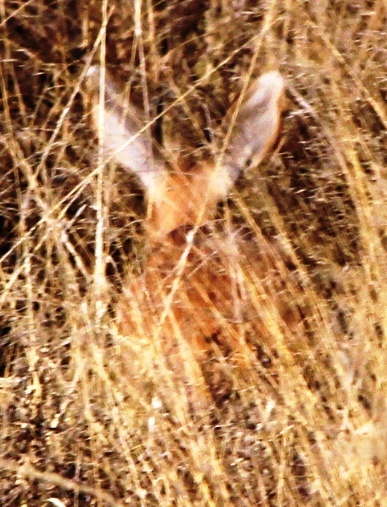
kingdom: Animalia
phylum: Chordata
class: Mammalia
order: Artiodactyla
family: Bovidae
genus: Raphicerus
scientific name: Raphicerus campestris
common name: Steenbok
